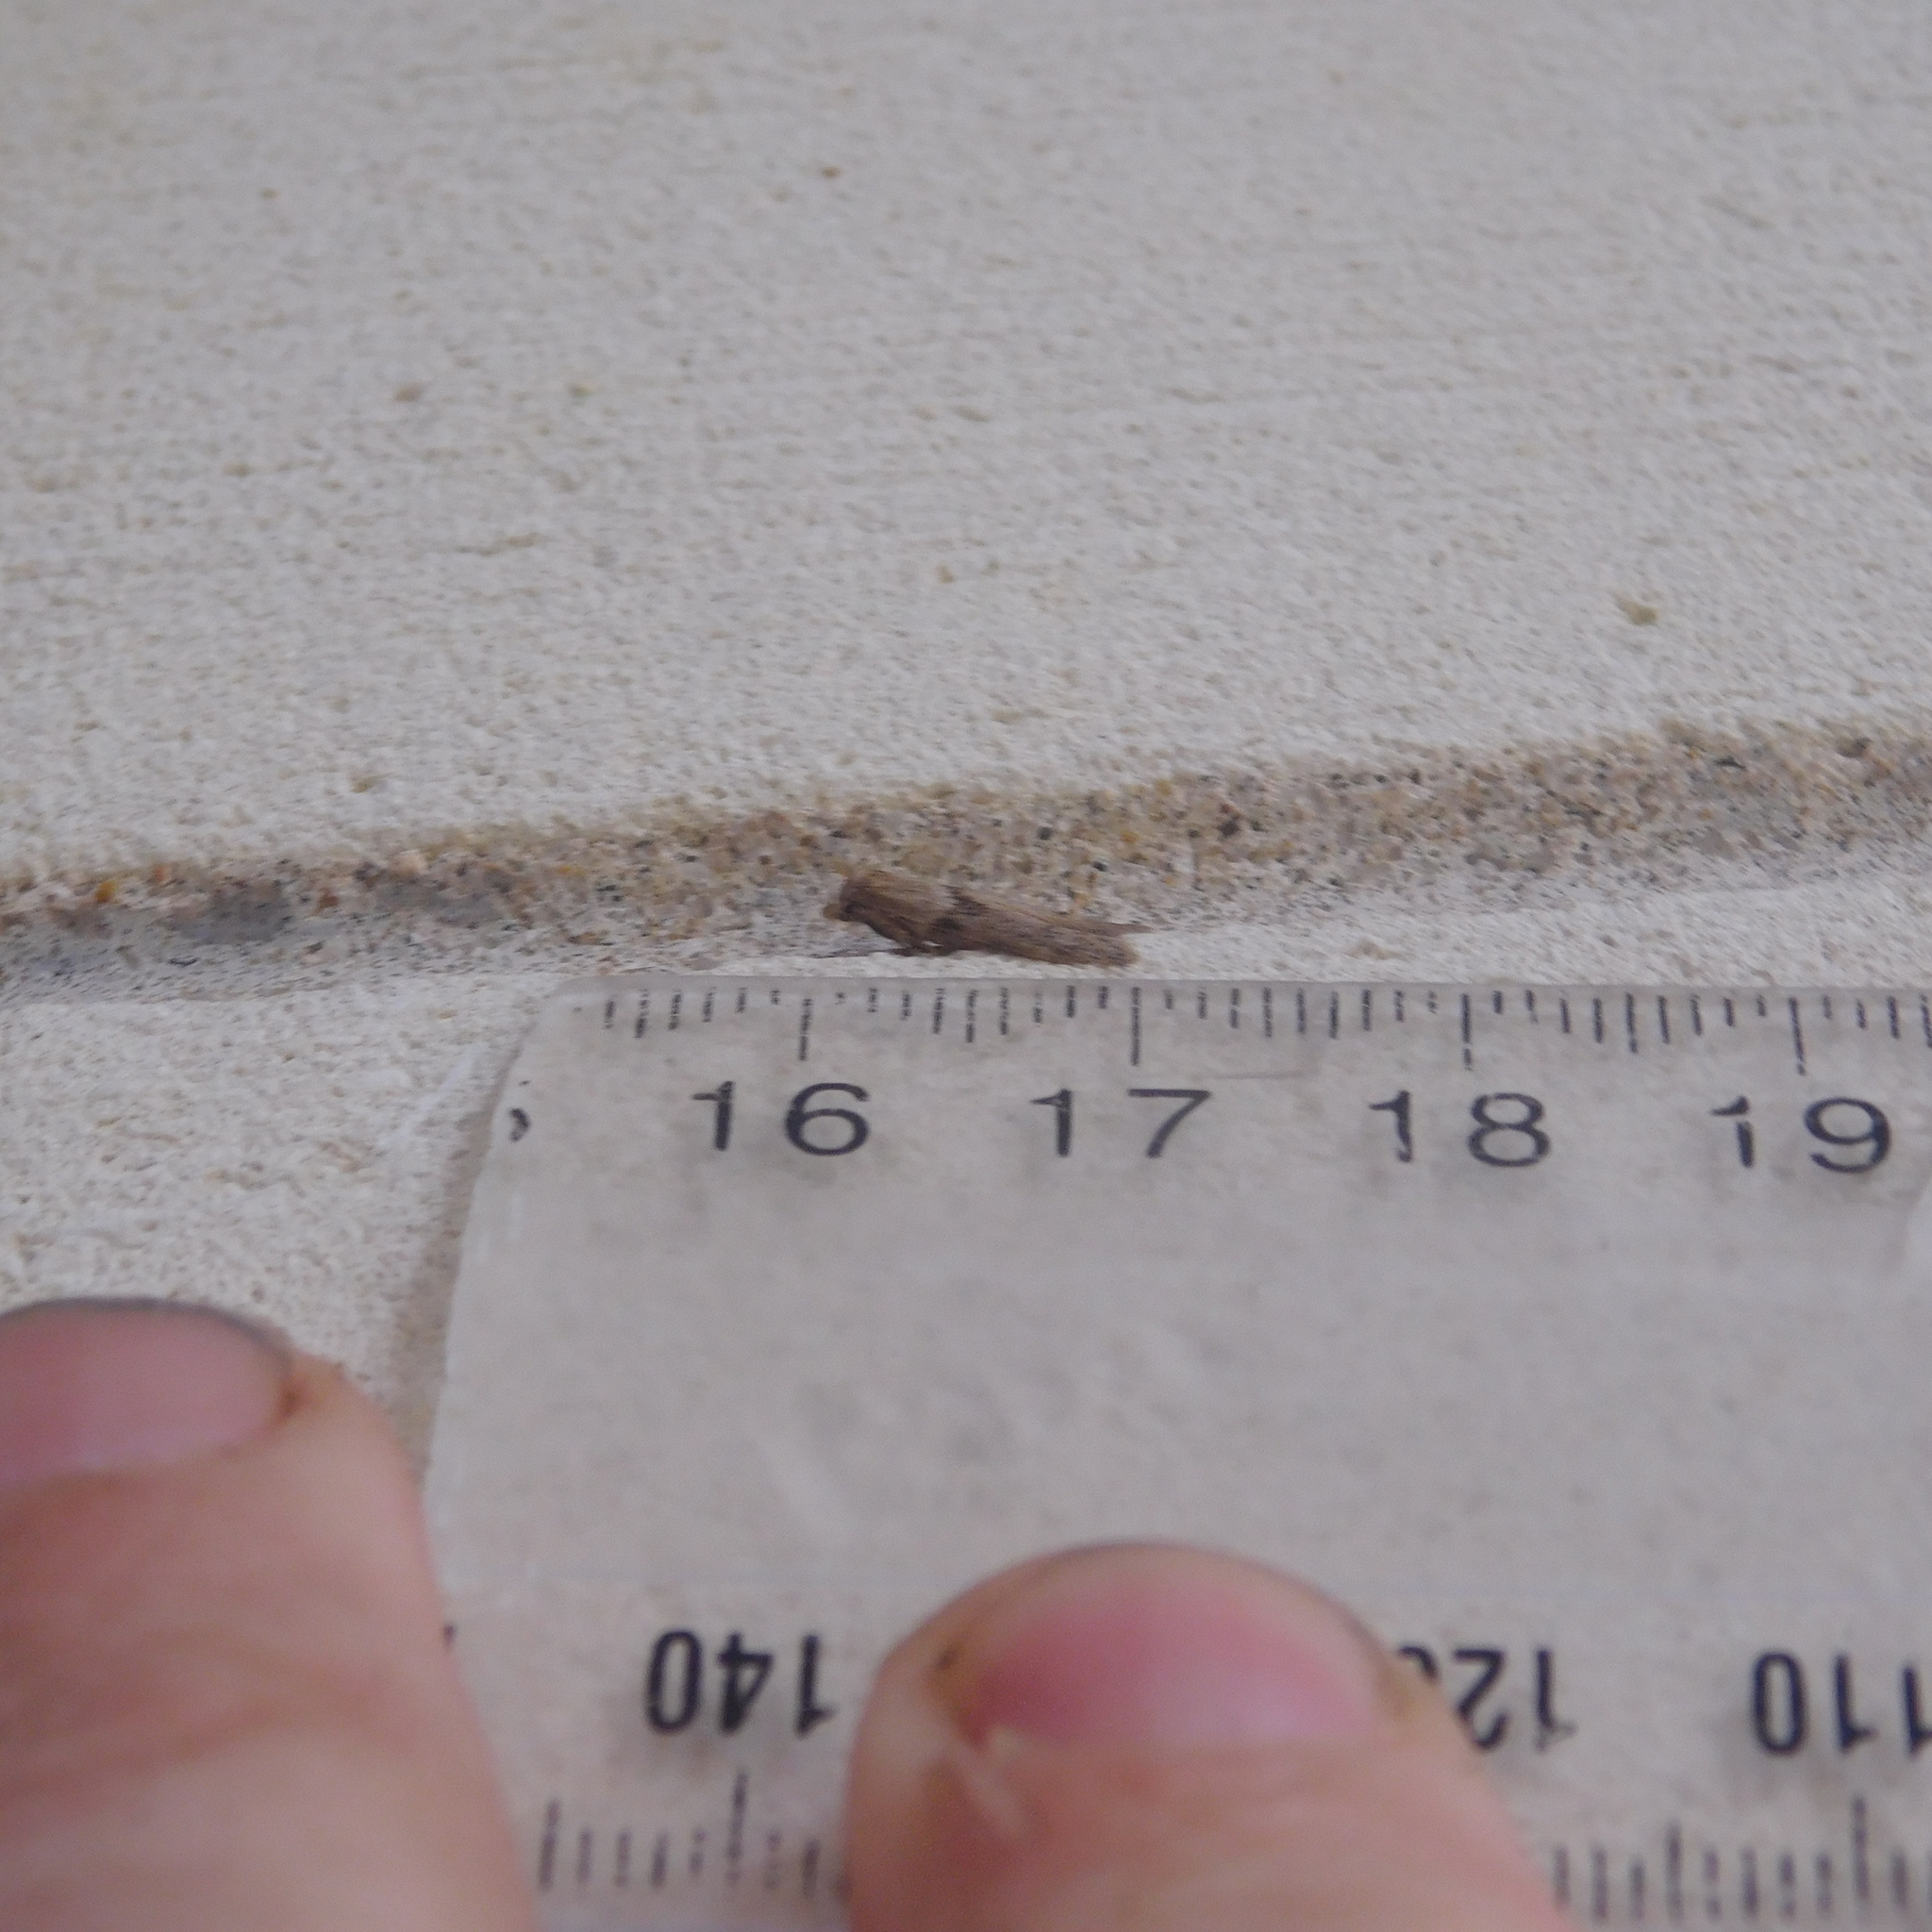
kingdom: Animalia
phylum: Arthropoda
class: Insecta
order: Lepidoptera
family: Blastobasidae
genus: Blastobasis
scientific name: Blastobasis tarda
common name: Blastobasid moth
